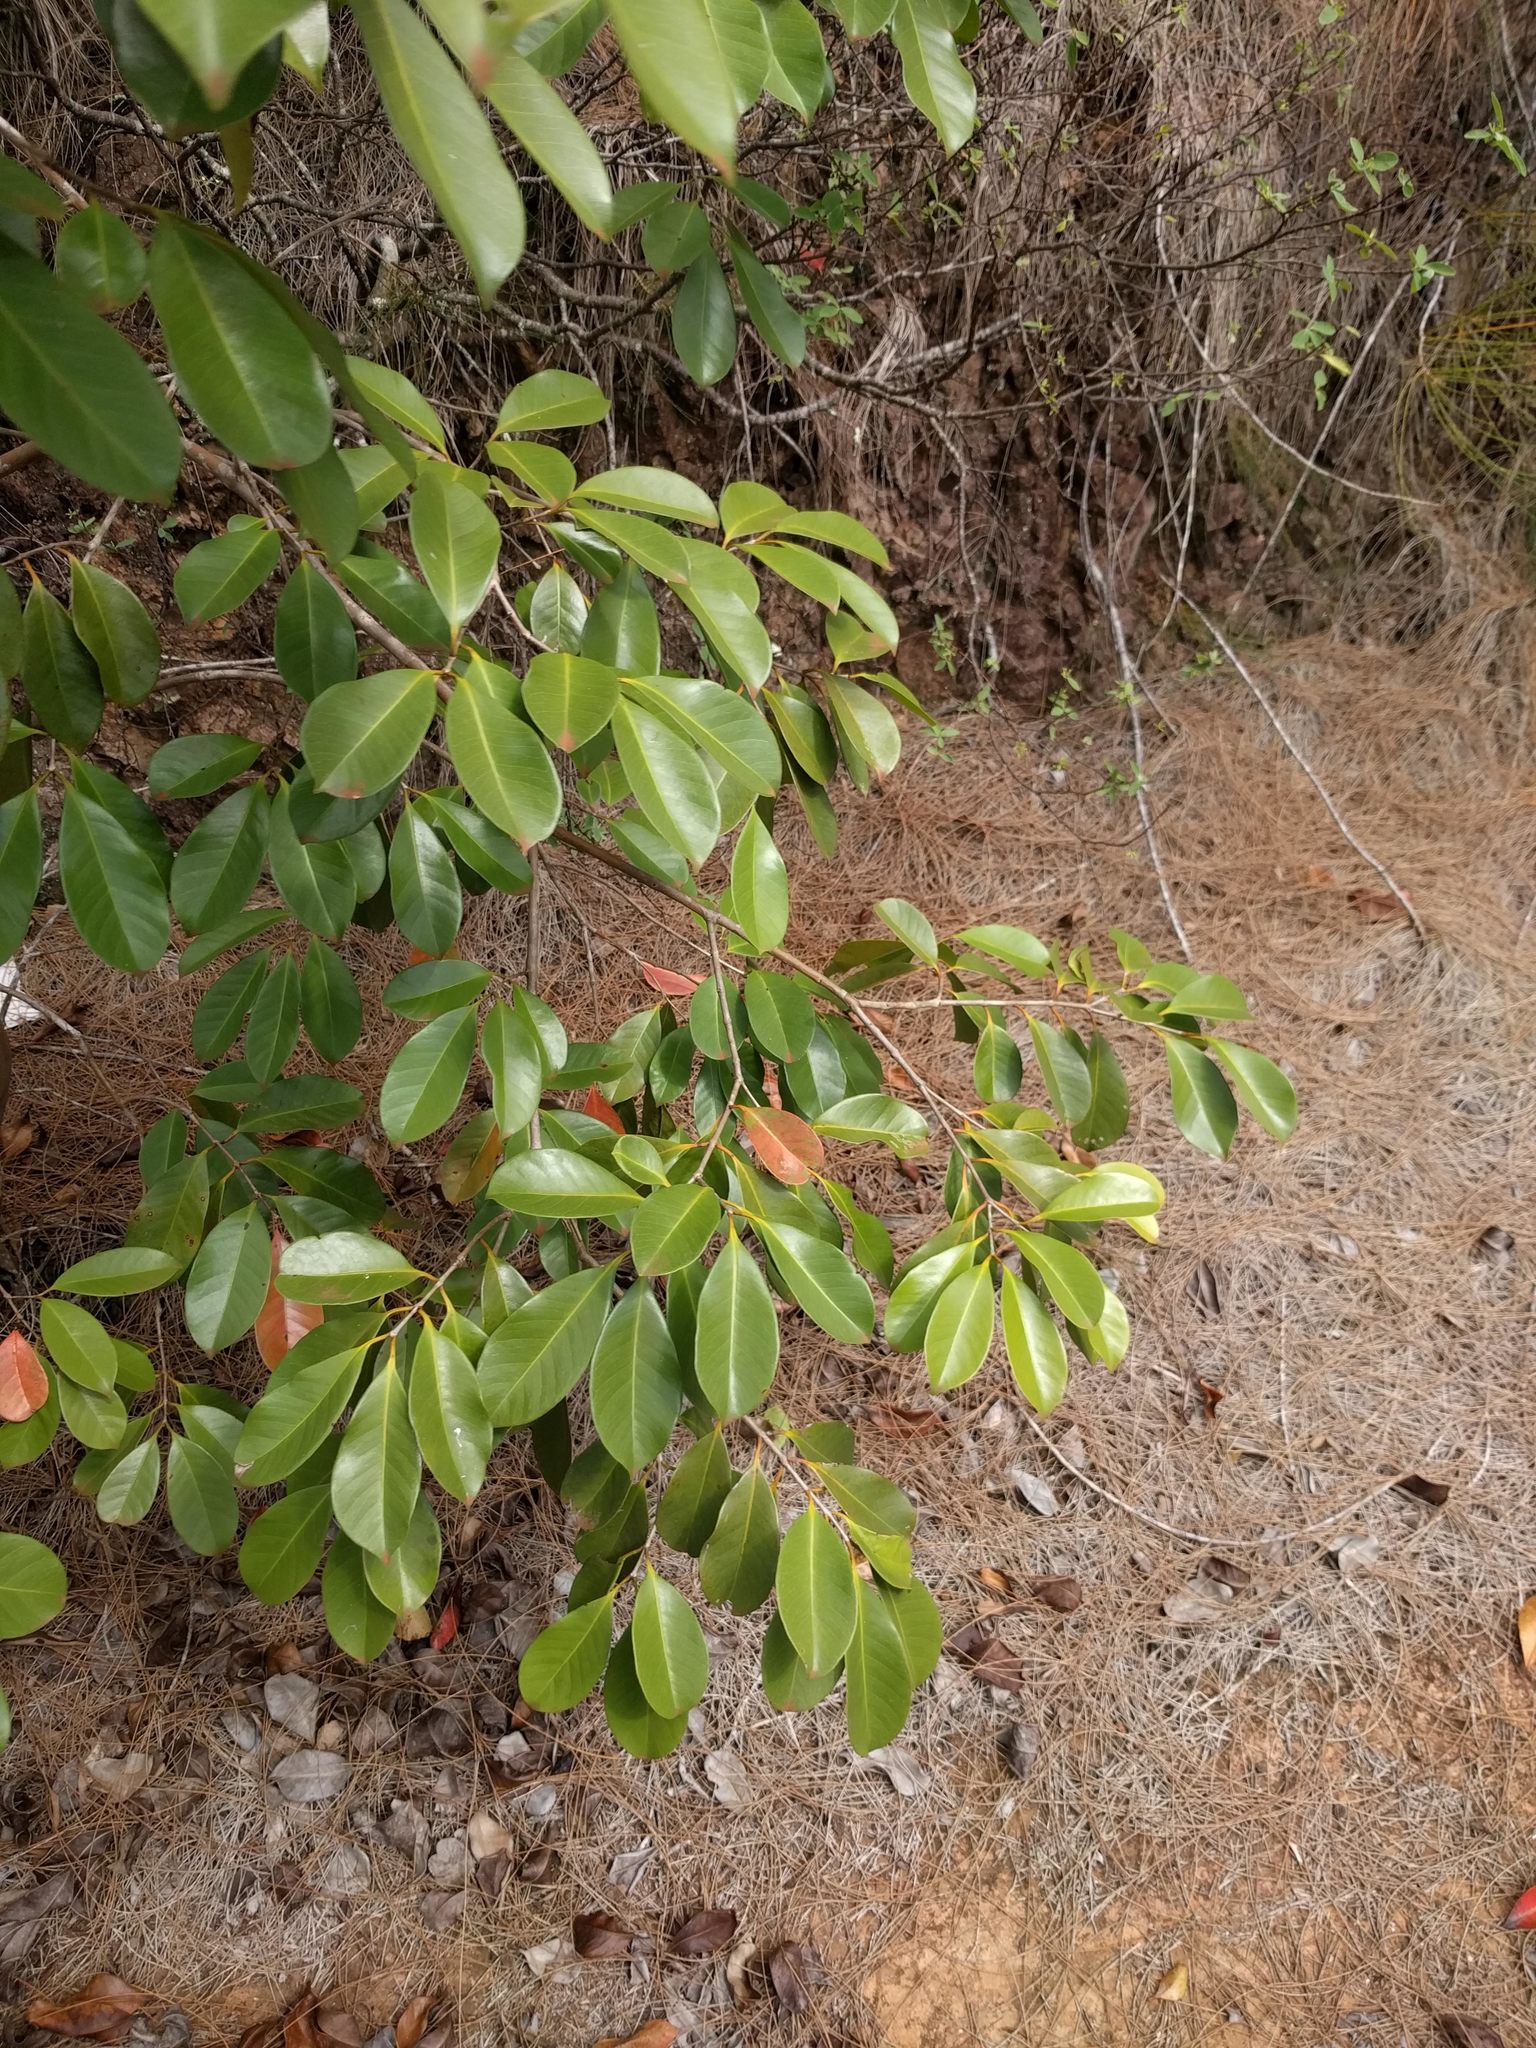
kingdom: Plantae
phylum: Tracheophyta
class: Magnoliopsida
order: Myrtales
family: Myrtaceae
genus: Psidium
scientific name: Psidium cattleianum
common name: Strawberry guava
